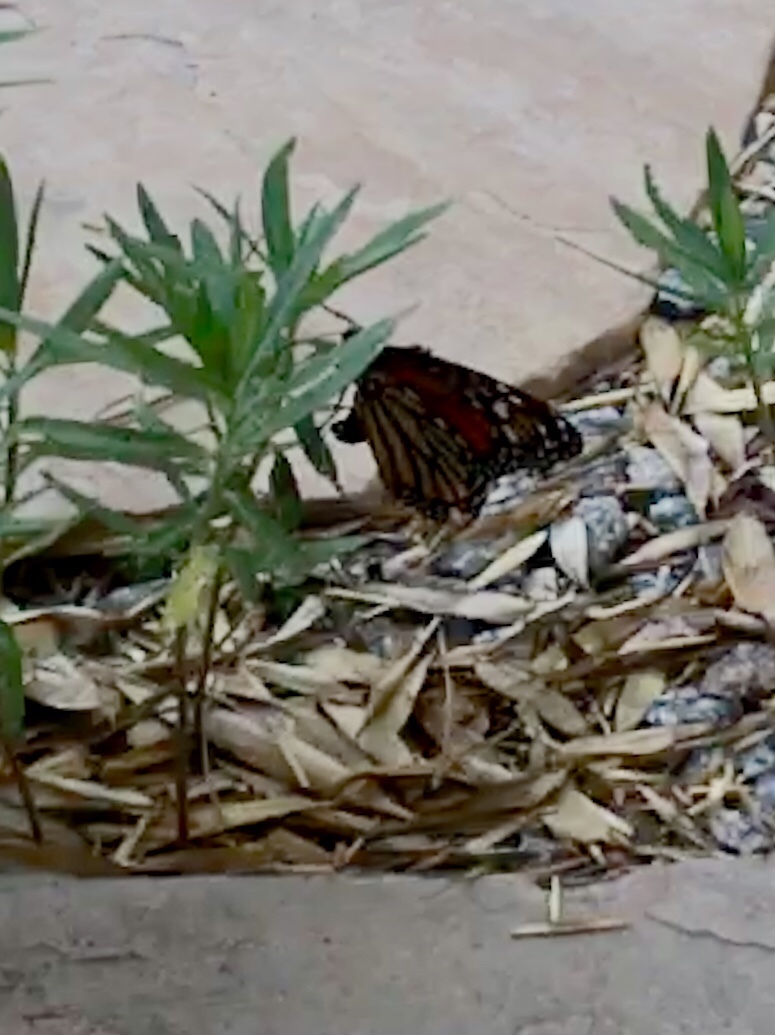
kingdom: Animalia
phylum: Arthropoda
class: Insecta
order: Lepidoptera
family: Nymphalidae
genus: Danaus
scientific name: Danaus plexippus
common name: Monarch
